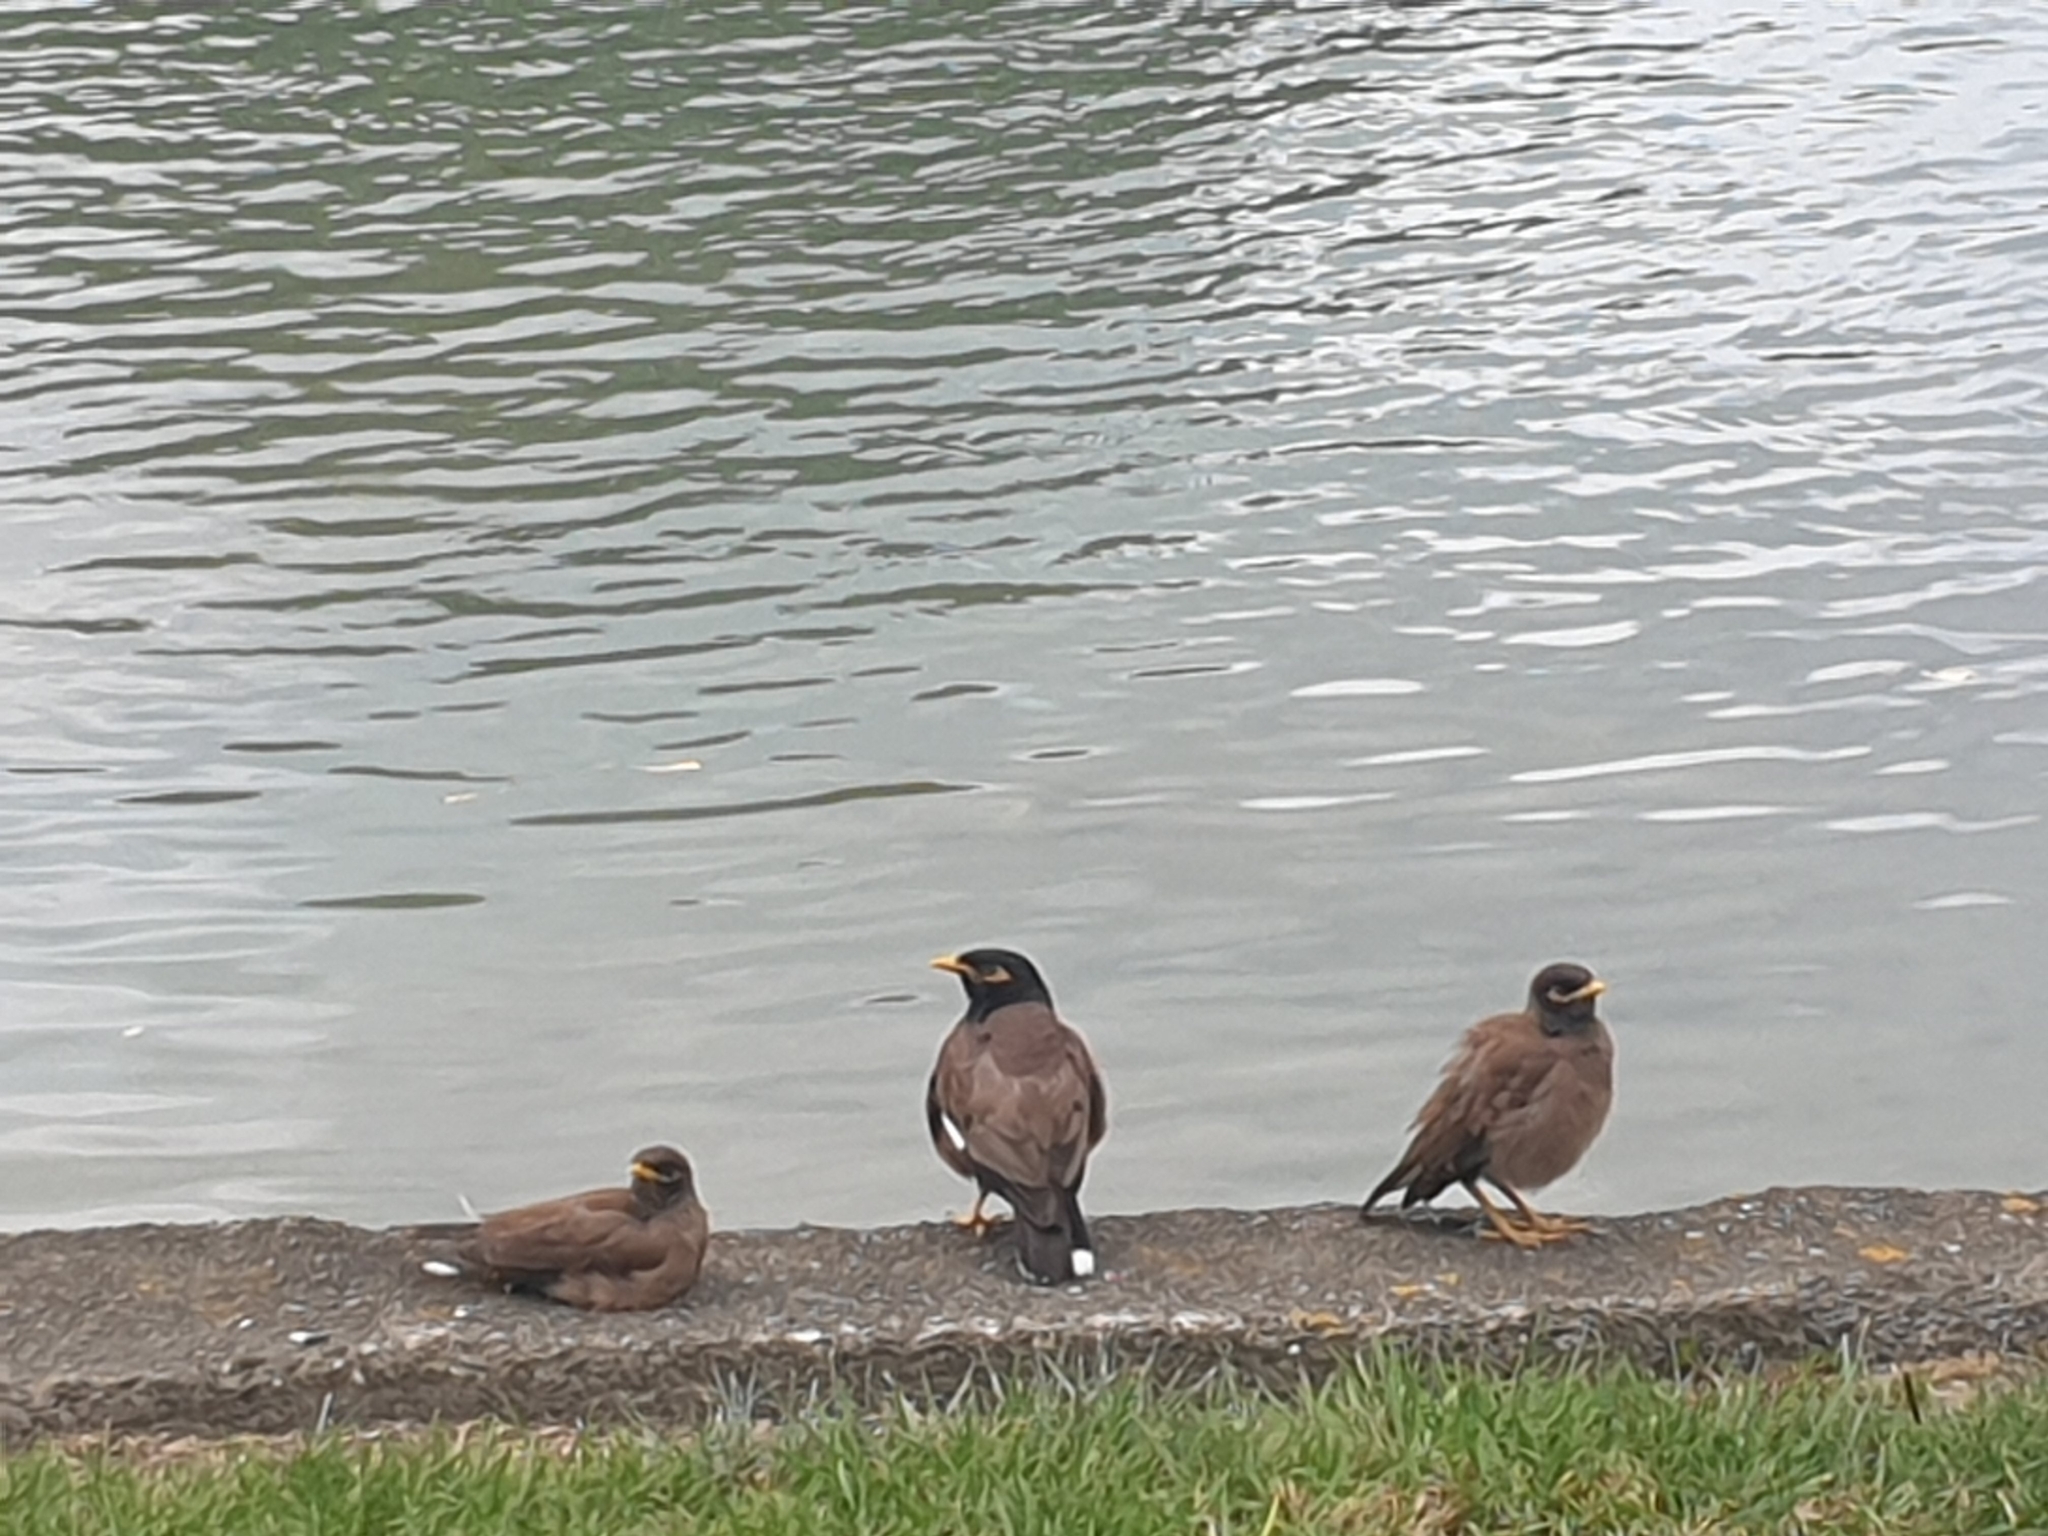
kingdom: Animalia
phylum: Chordata
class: Aves
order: Passeriformes
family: Sturnidae
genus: Acridotheres
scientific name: Acridotheres tristis
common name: Common myna
